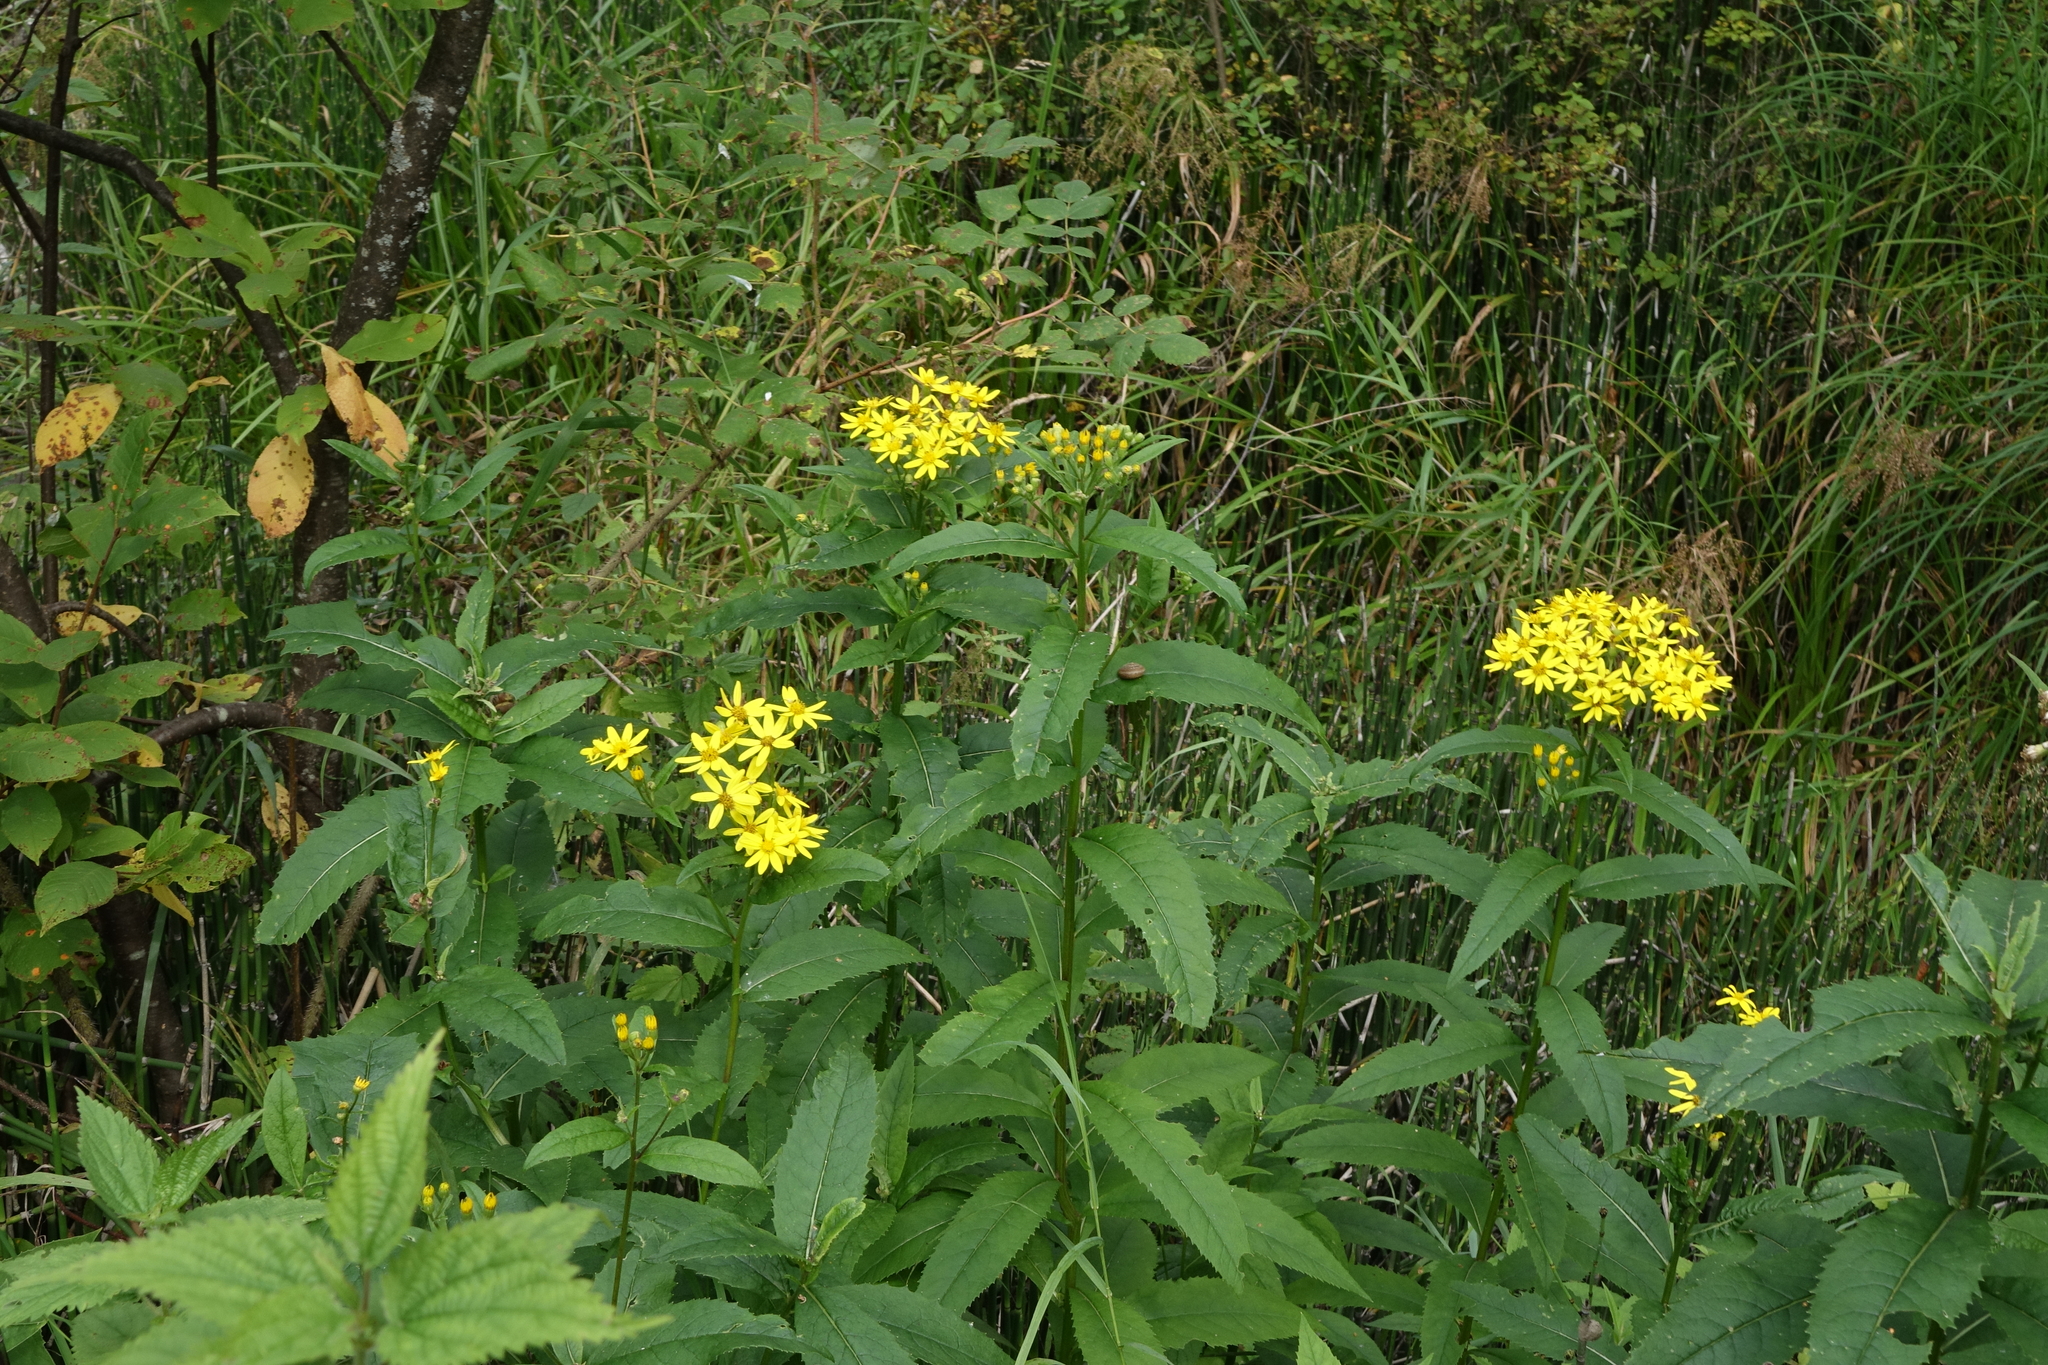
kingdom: Plantae
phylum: Tracheophyta
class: Magnoliopsida
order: Asterales
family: Asteraceae
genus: Senecio
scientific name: Senecio nemorensis
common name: Alpine ragwort
